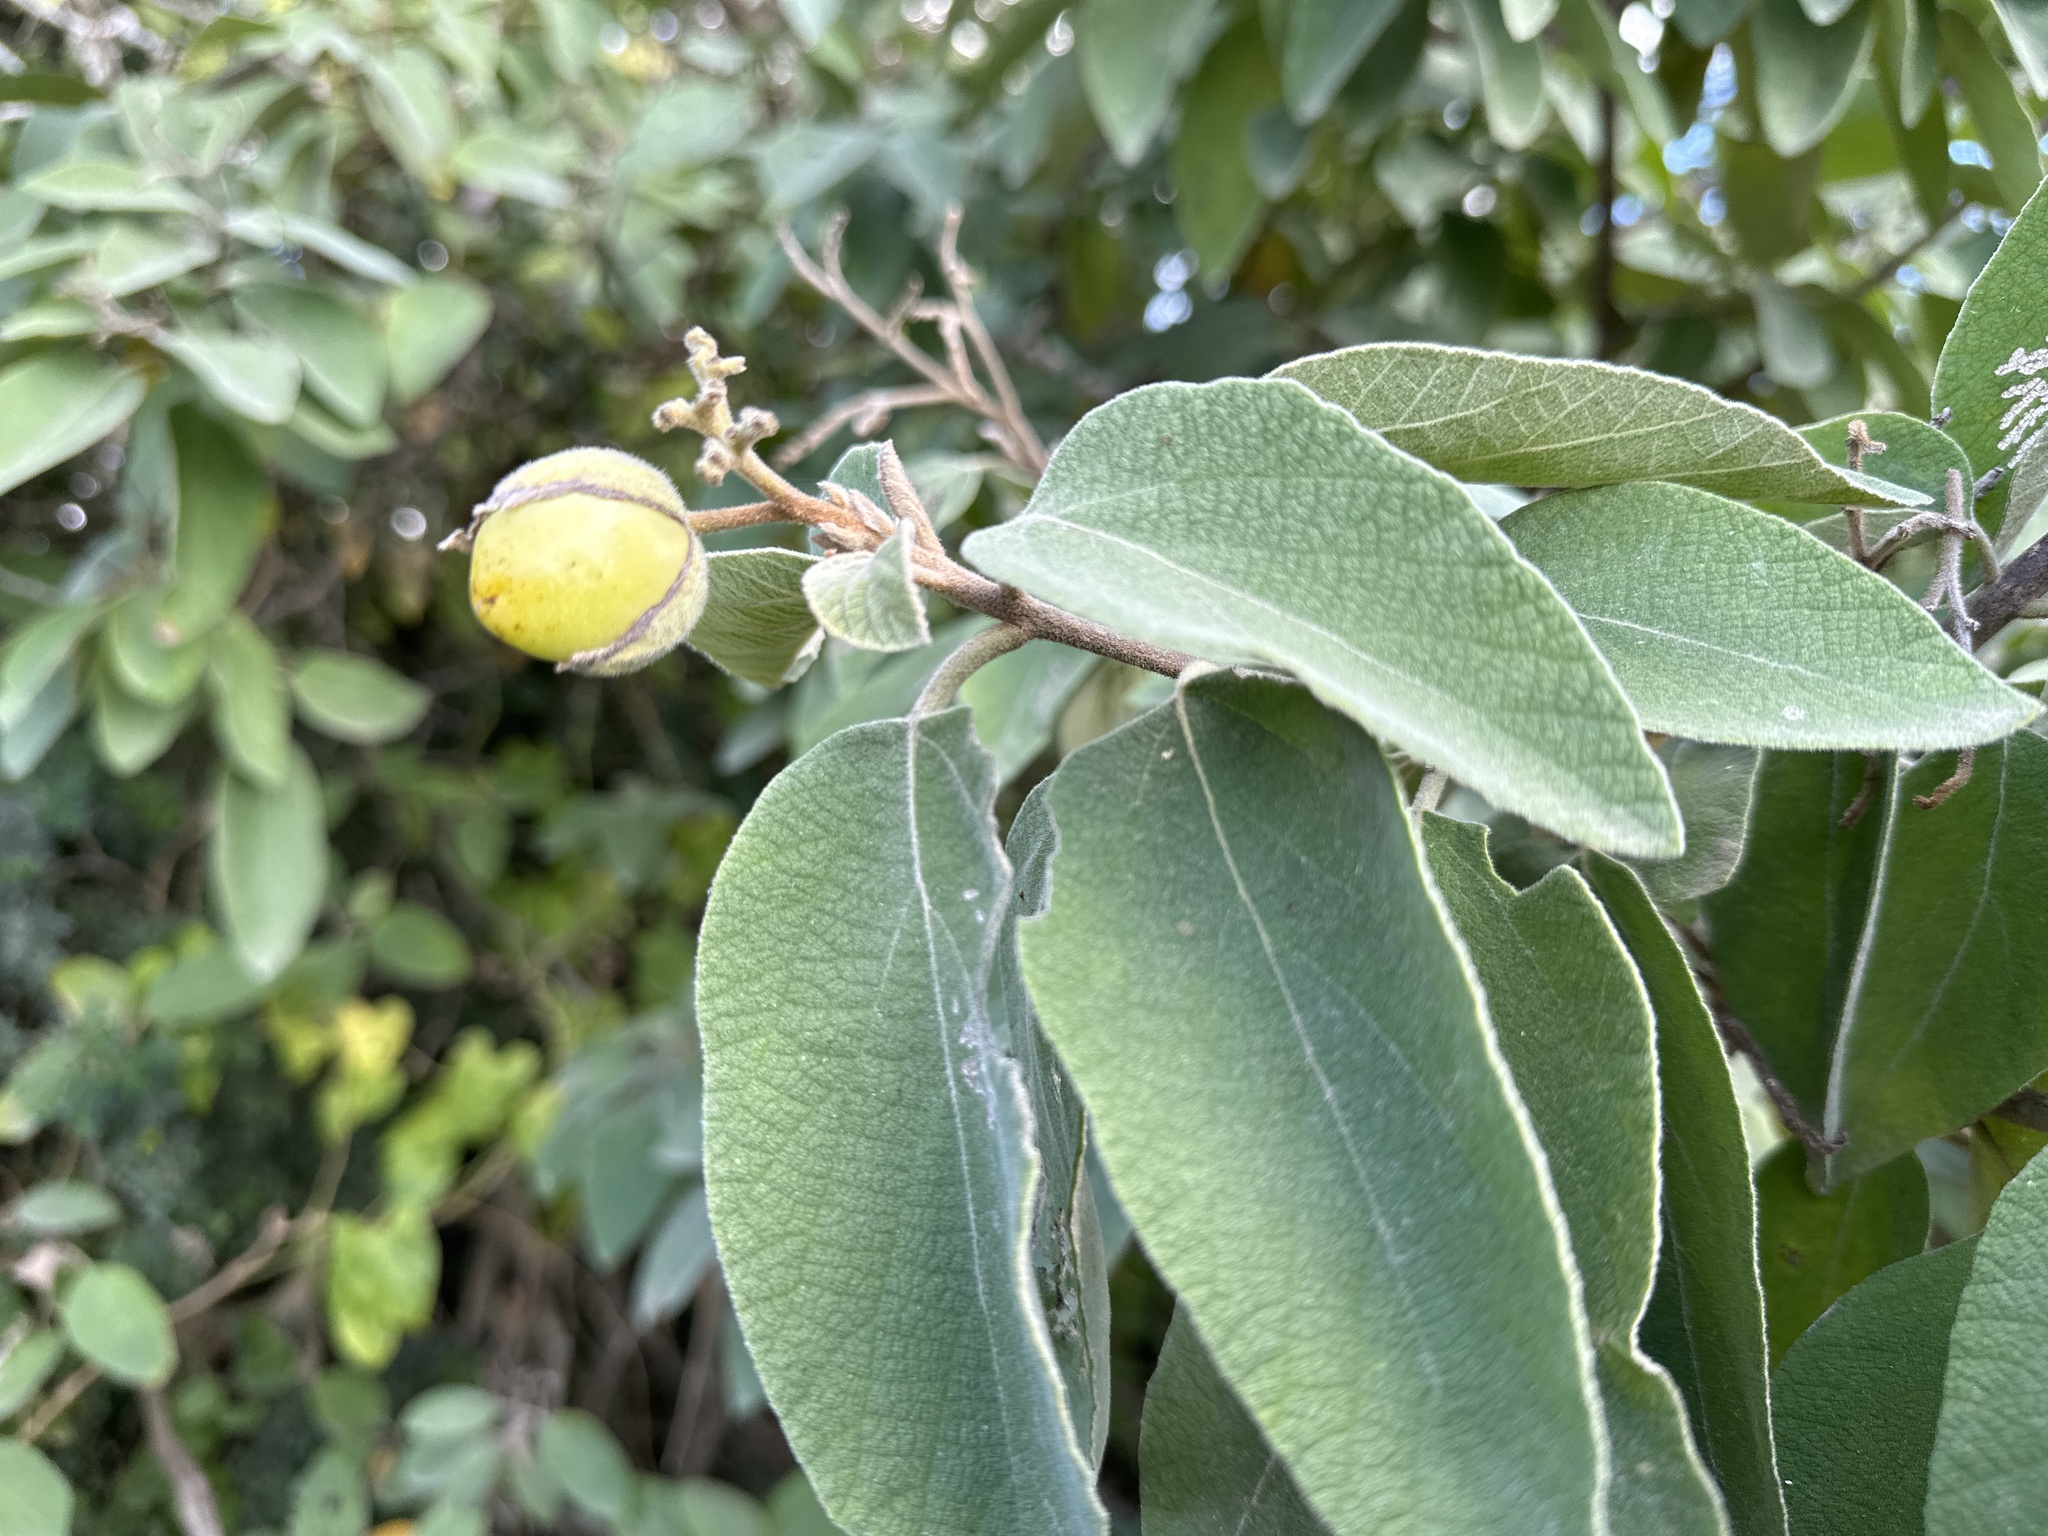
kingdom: Plantae
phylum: Tracheophyta
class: Magnoliopsida
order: Boraginales
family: Cordiaceae
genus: Cordia
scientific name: Cordia boissieri
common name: Mexican-olive
